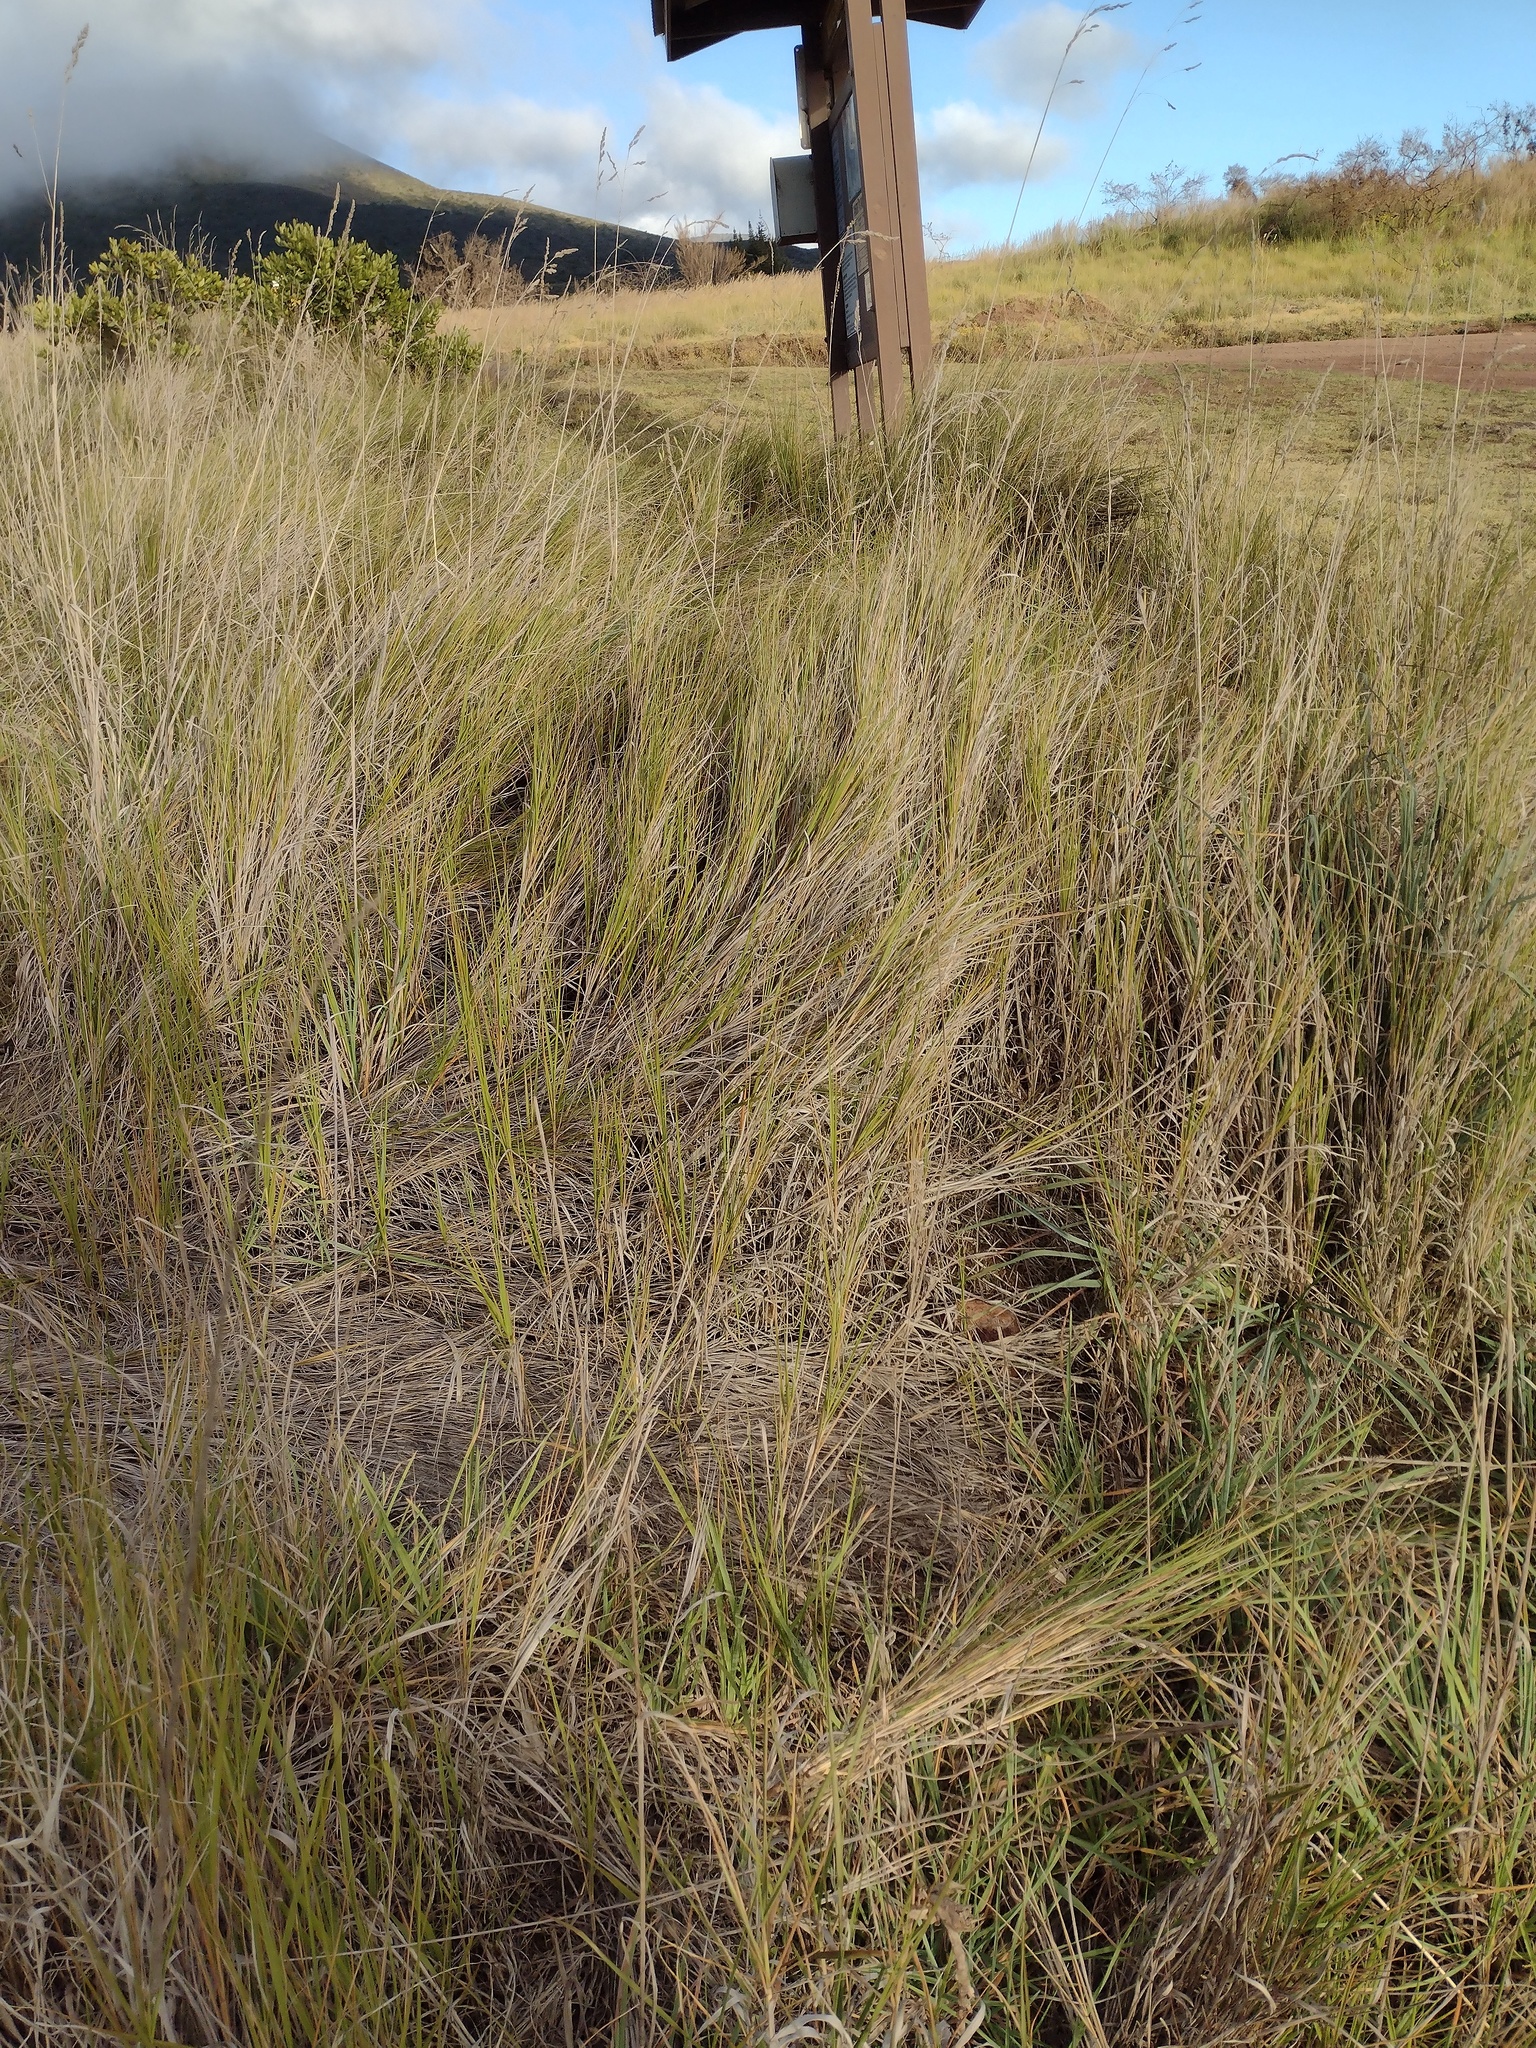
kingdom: Plantae
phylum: Tracheophyta
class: Liliopsida
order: Poales
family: Poaceae
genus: Dactylis
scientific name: Dactylis glomerata
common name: Orchardgrass
